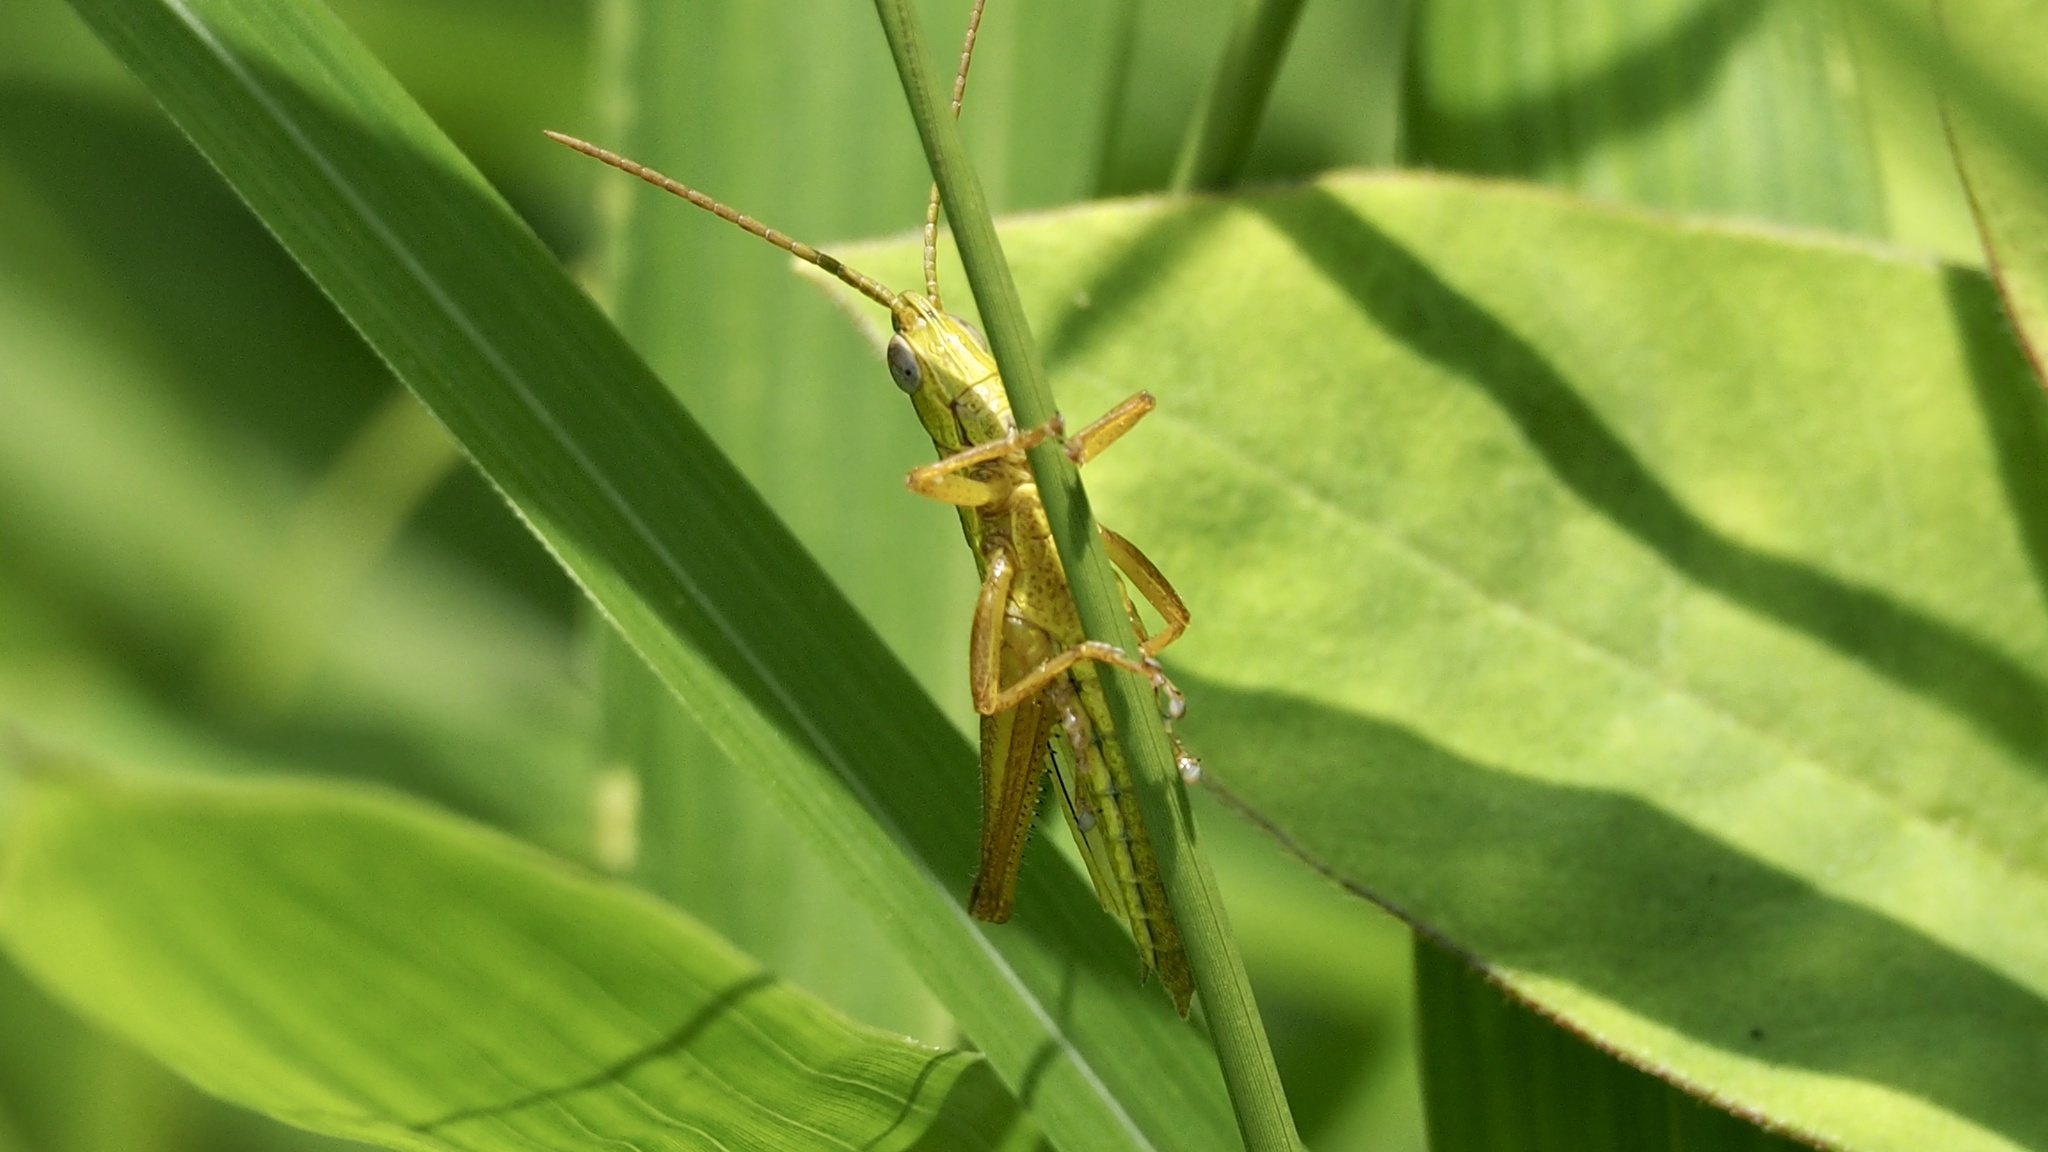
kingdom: Animalia
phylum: Arthropoda
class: Insecta
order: Orthoptera
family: Acrididae
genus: Mongolotettix
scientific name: Mongolotettix japonicus
